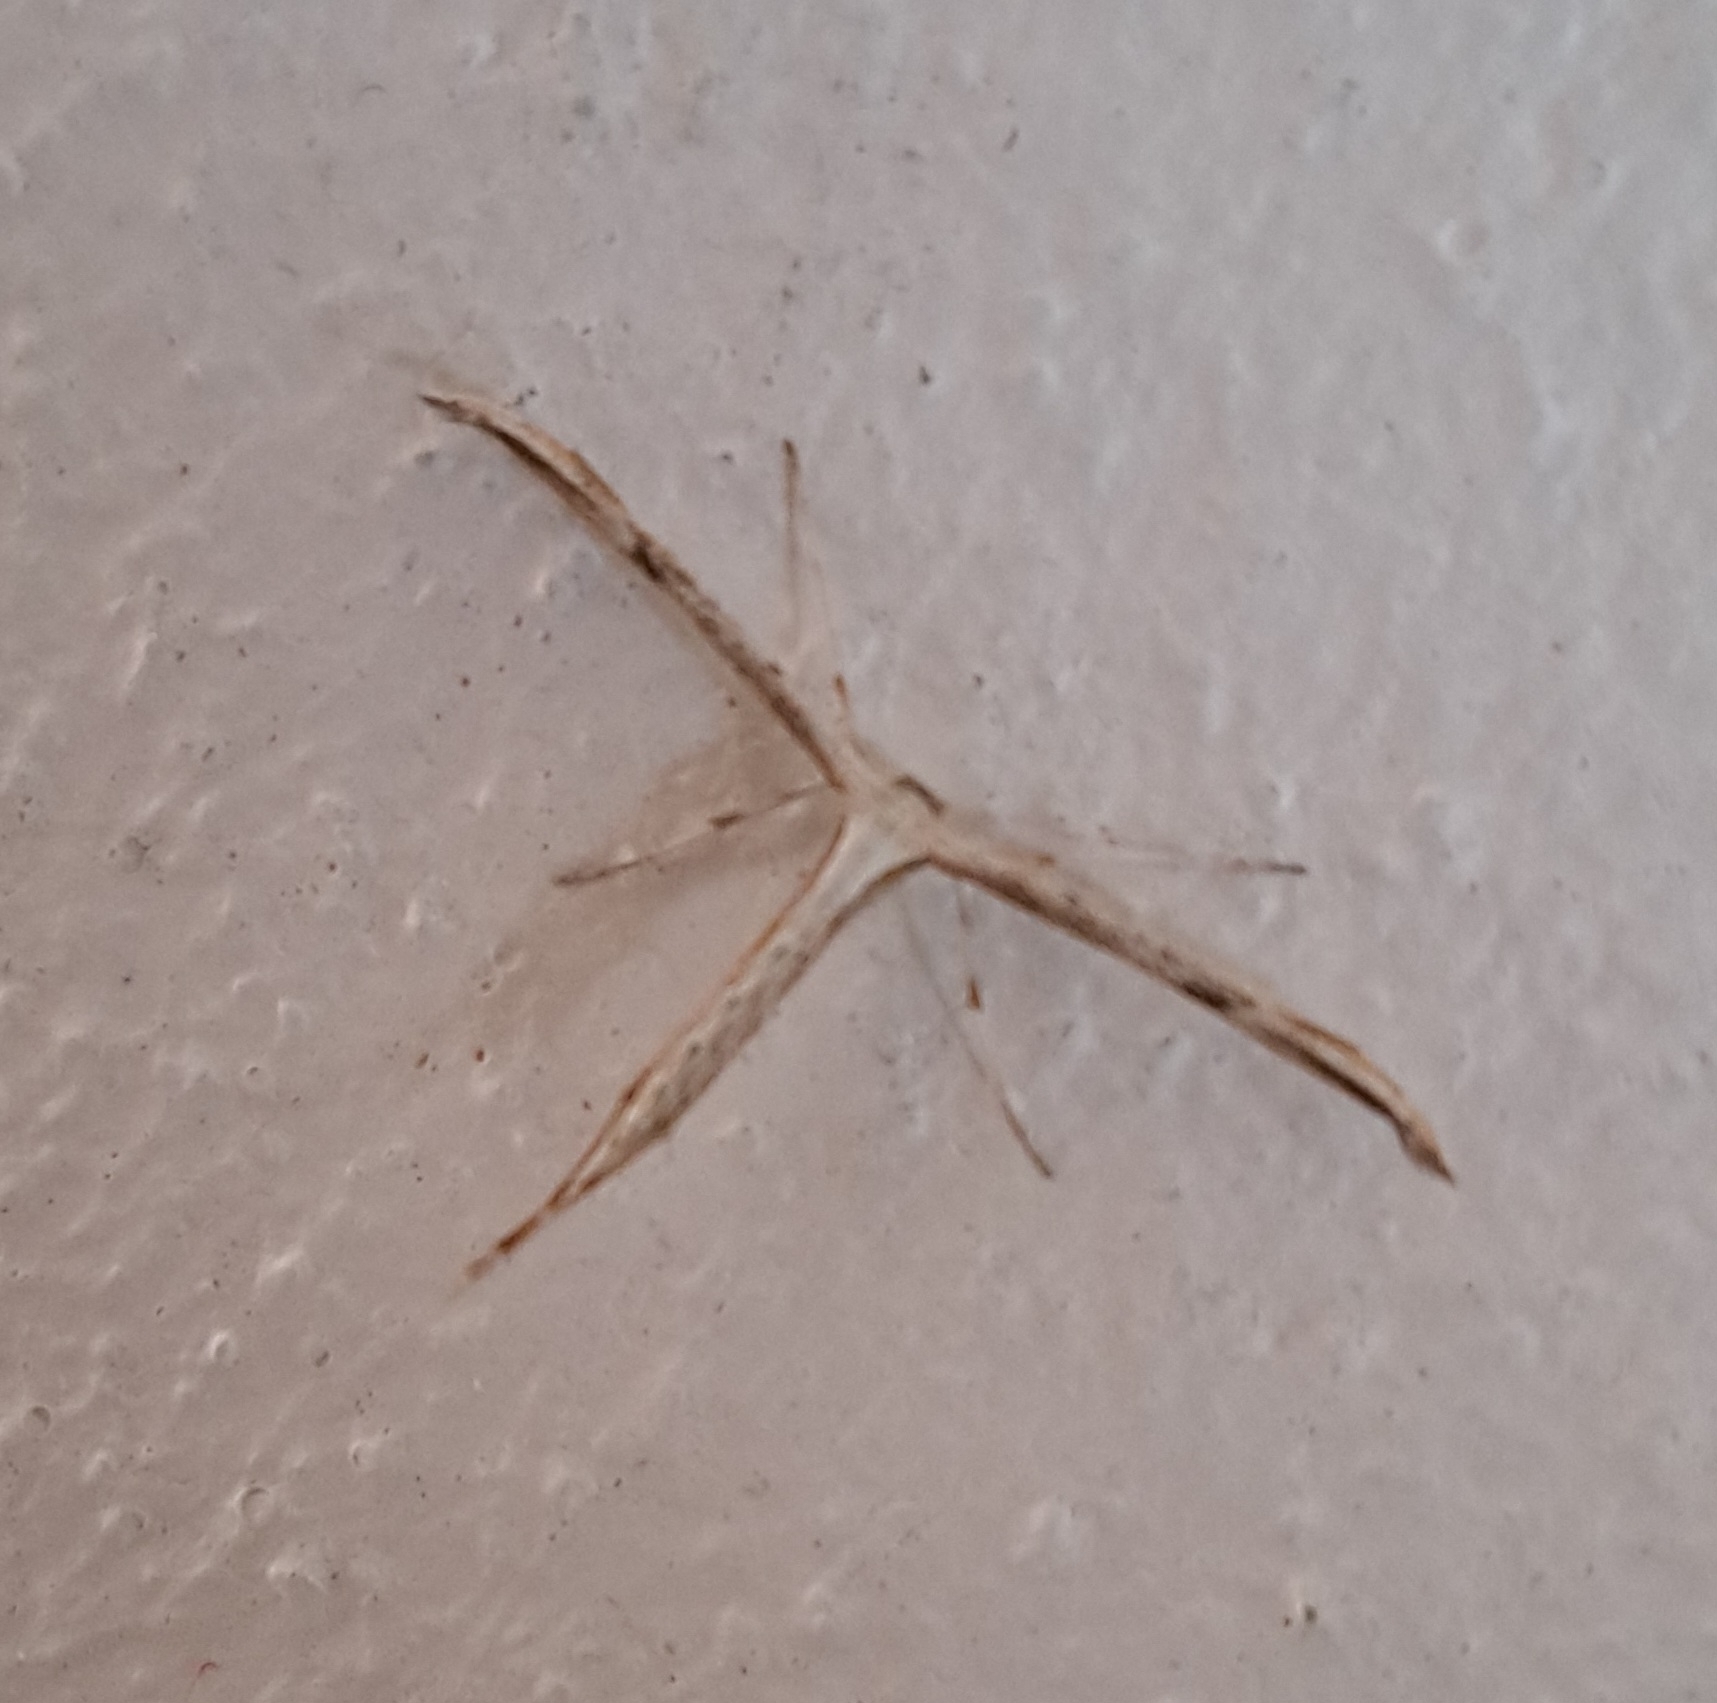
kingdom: Animalia
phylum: Arthropoda
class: Insecta
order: Lepidoptera
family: Pterophoridae
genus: Emmelina
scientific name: Emmelina monodactyla
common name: Common plume
